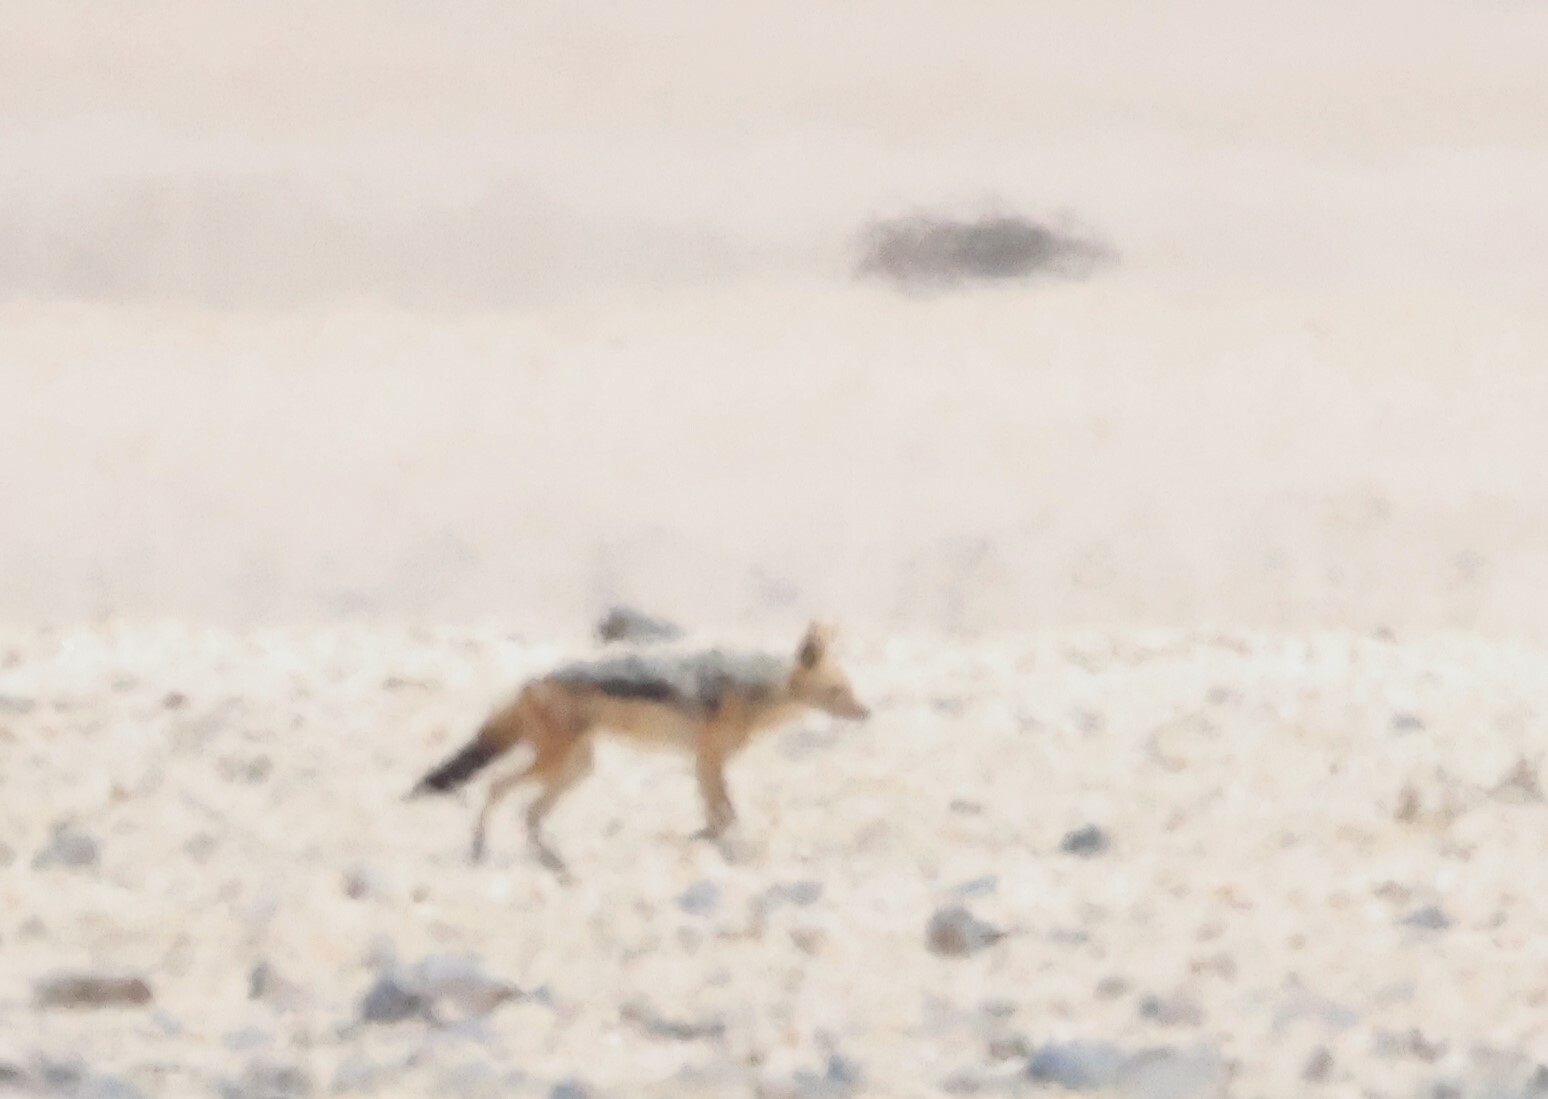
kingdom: Animalia
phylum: Chordata
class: Mammalia
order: Carnivora
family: Canidae
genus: Lupulella
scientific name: Lupulella
